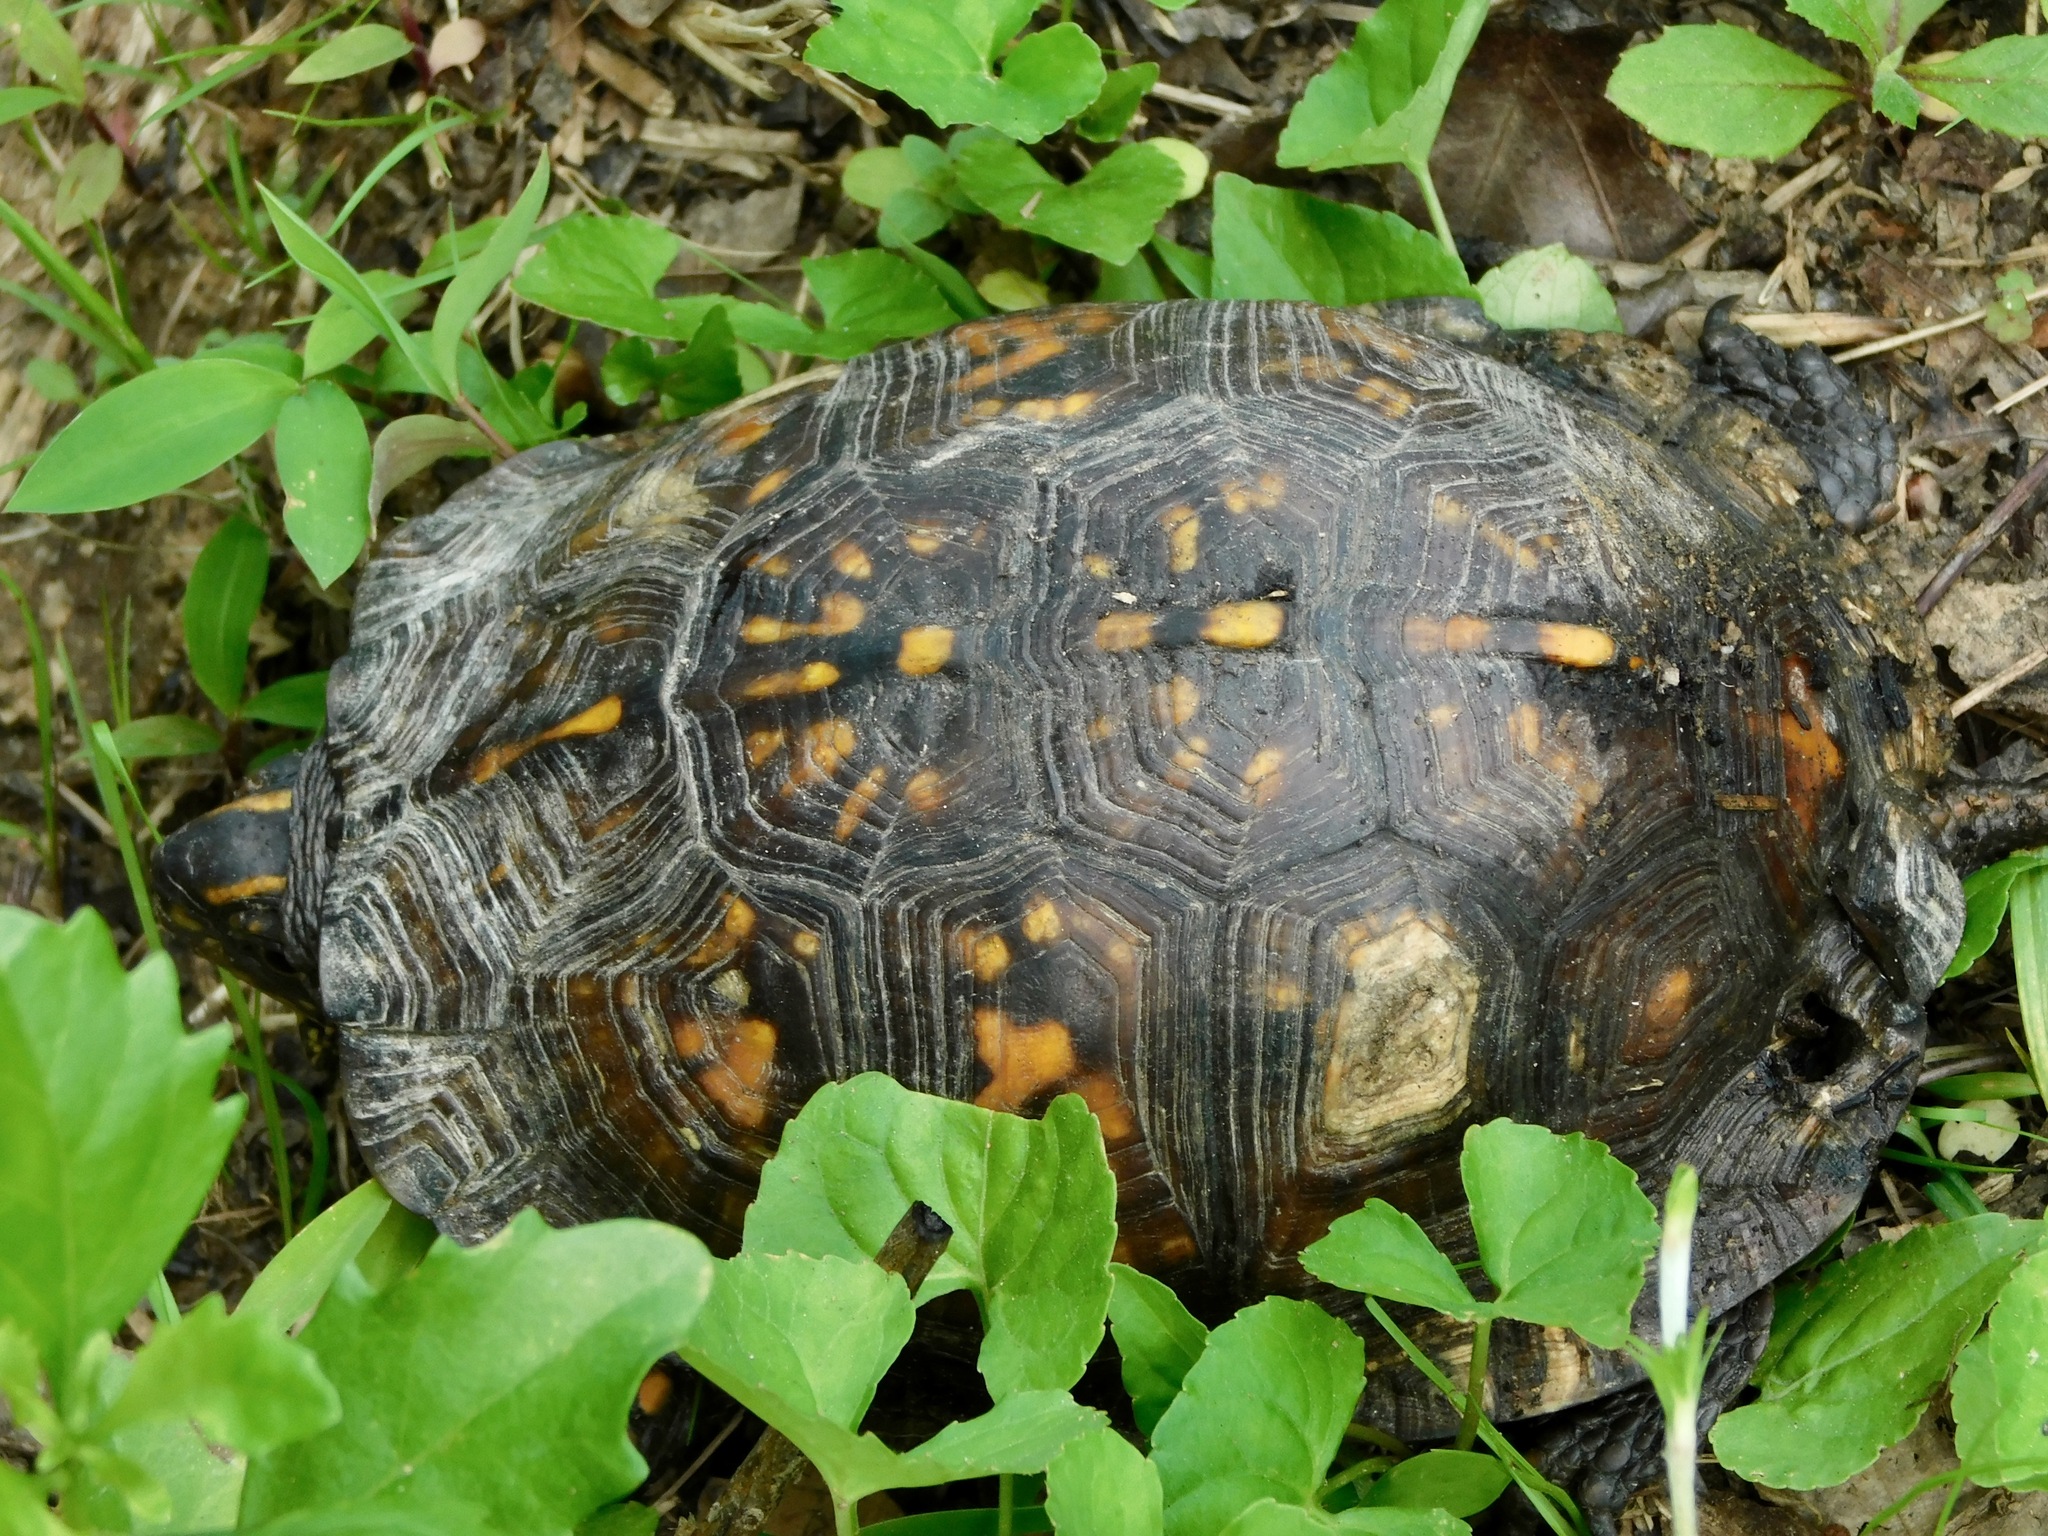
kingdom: Animalia
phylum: Chordata
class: Testudines
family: Emydidae
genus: Terrapene
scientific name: Terrapene carolina
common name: Common box turtle
